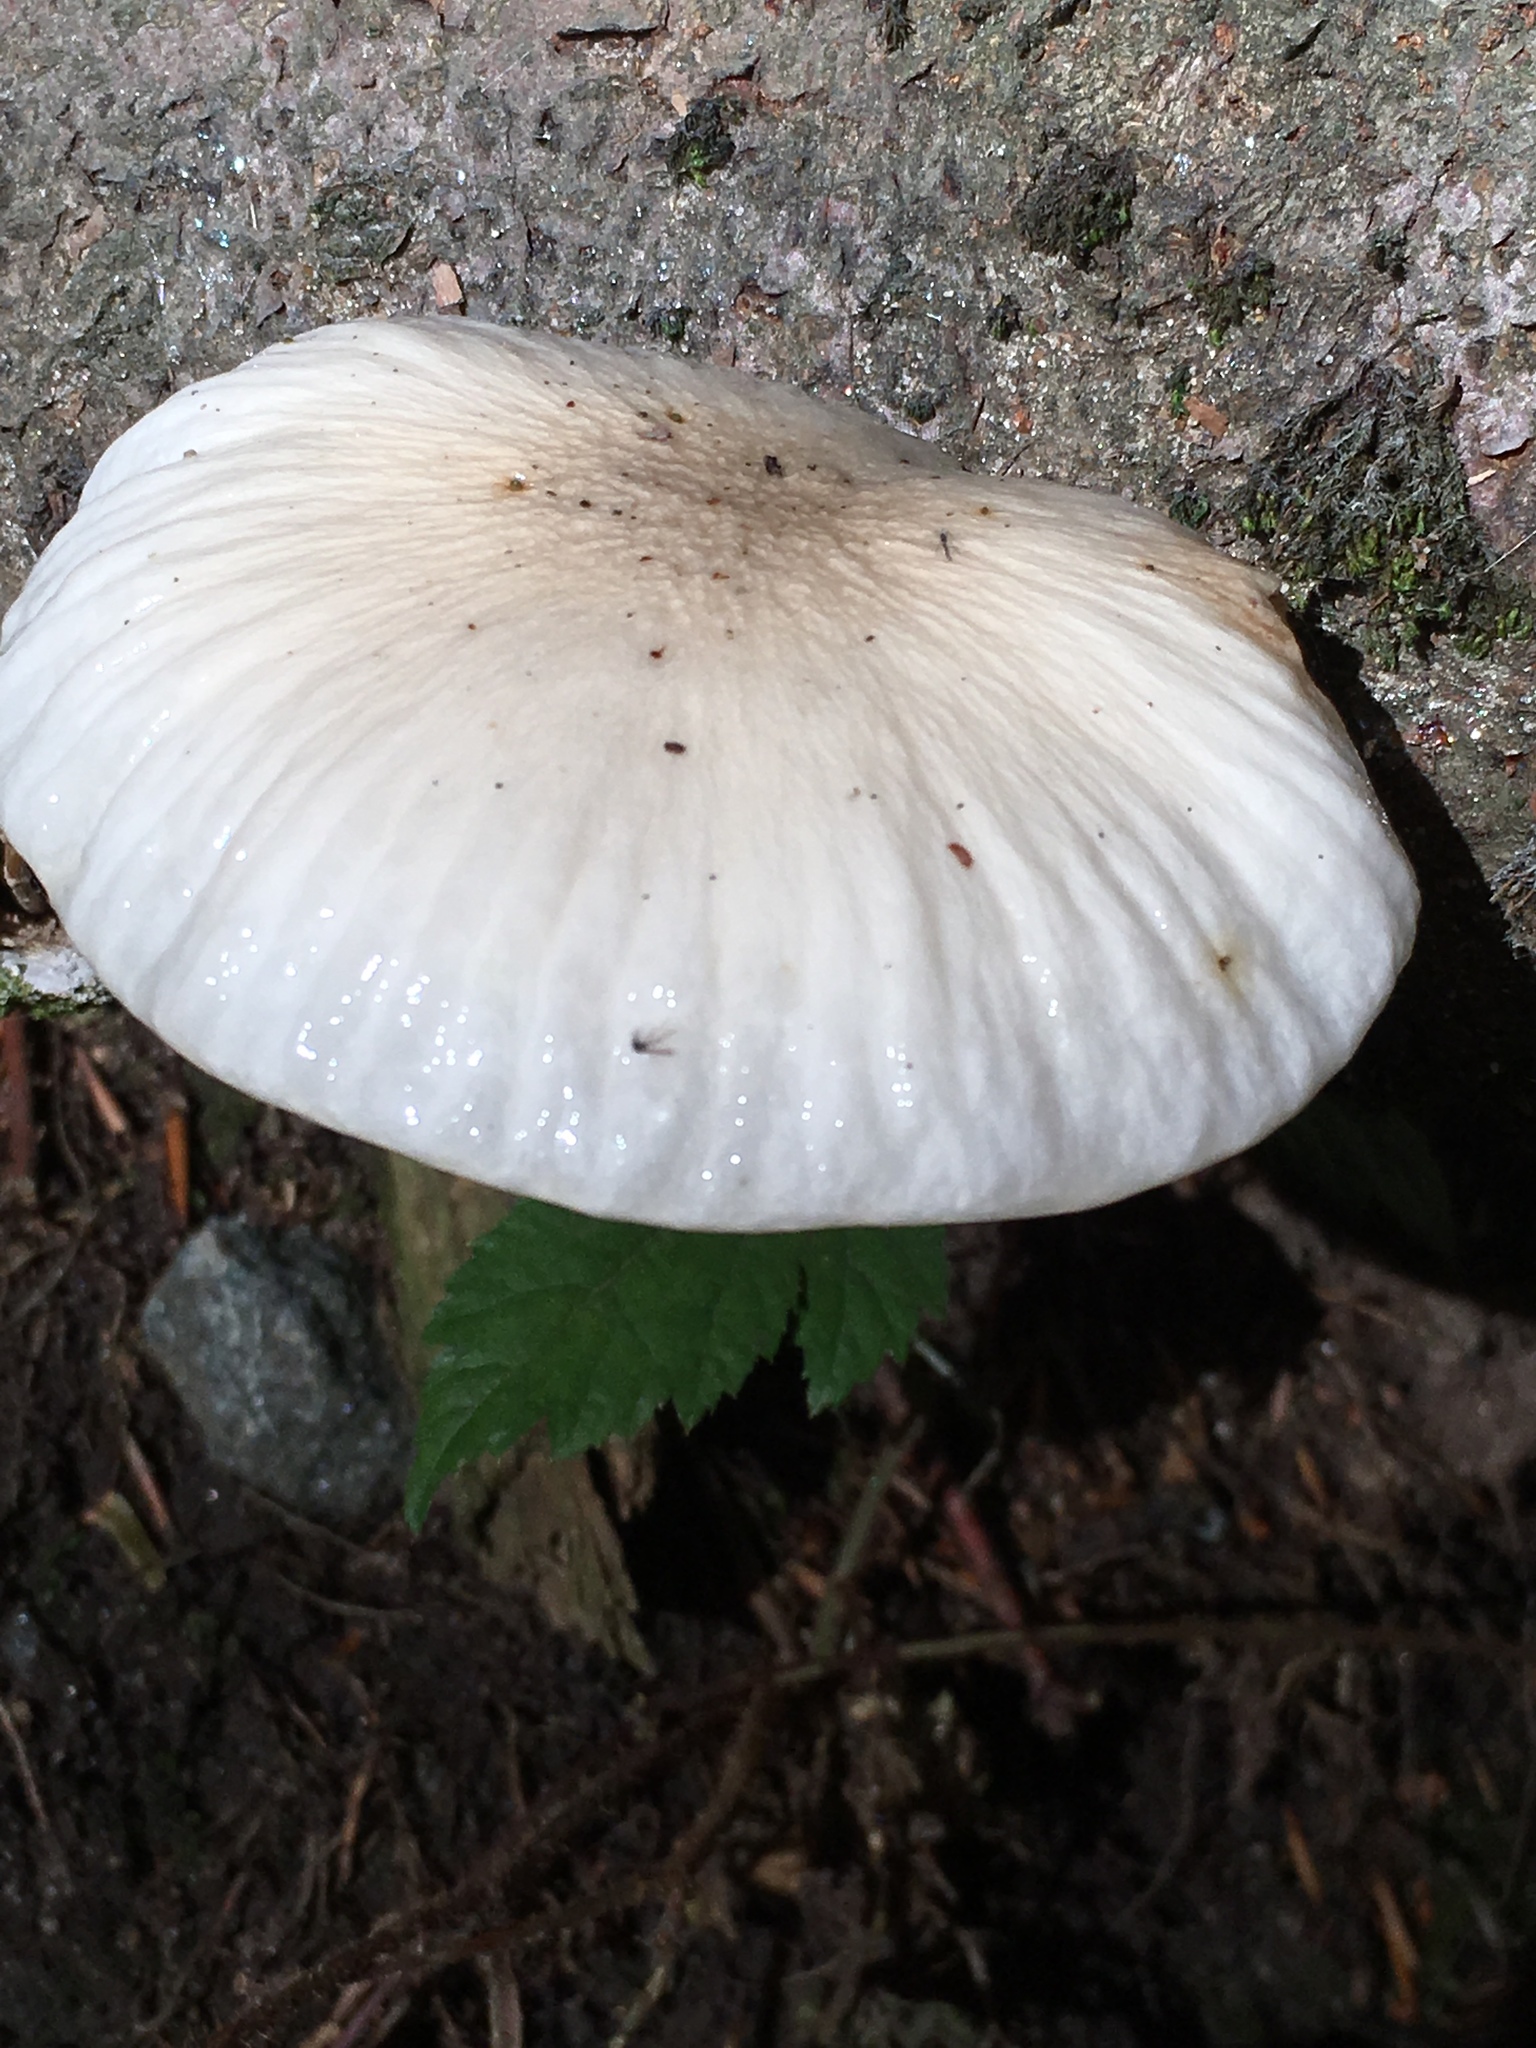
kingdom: Fungi
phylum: Basidiomycota
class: Agaricomycetes
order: Agaricales
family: Physalacriaceae
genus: Mucidula
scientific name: Mucidula mucida
